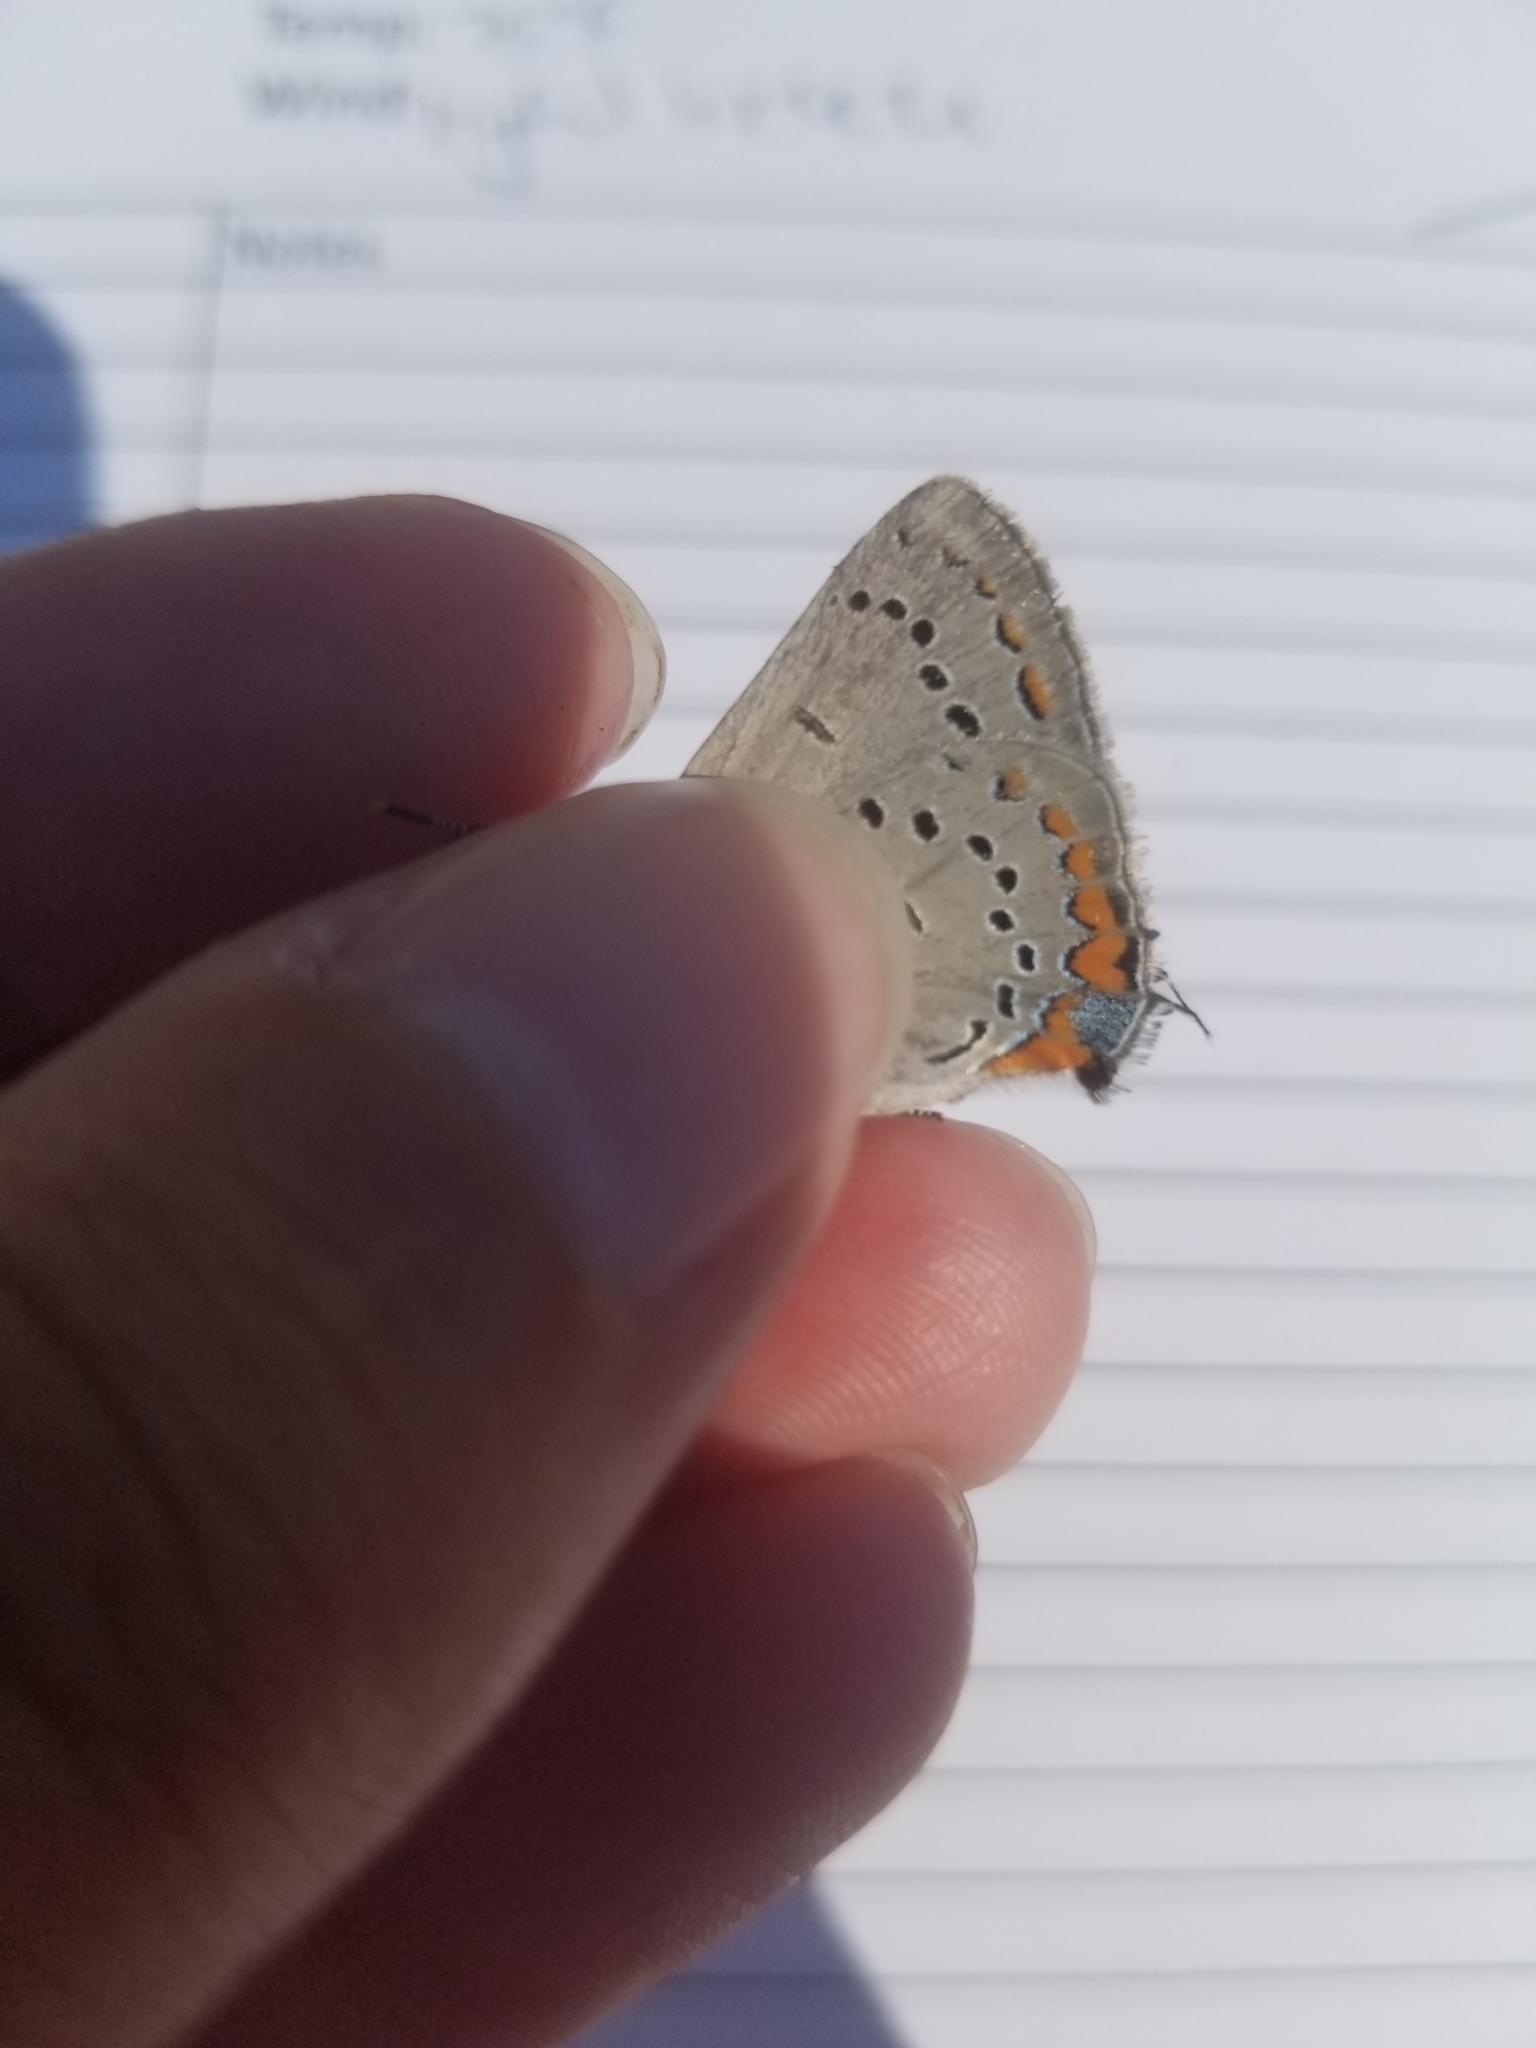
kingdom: Animalia
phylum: Arthropoda
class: Insecta
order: Lepidoptera
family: Lycaenidae
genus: Strymon
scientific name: Strymon acadica
